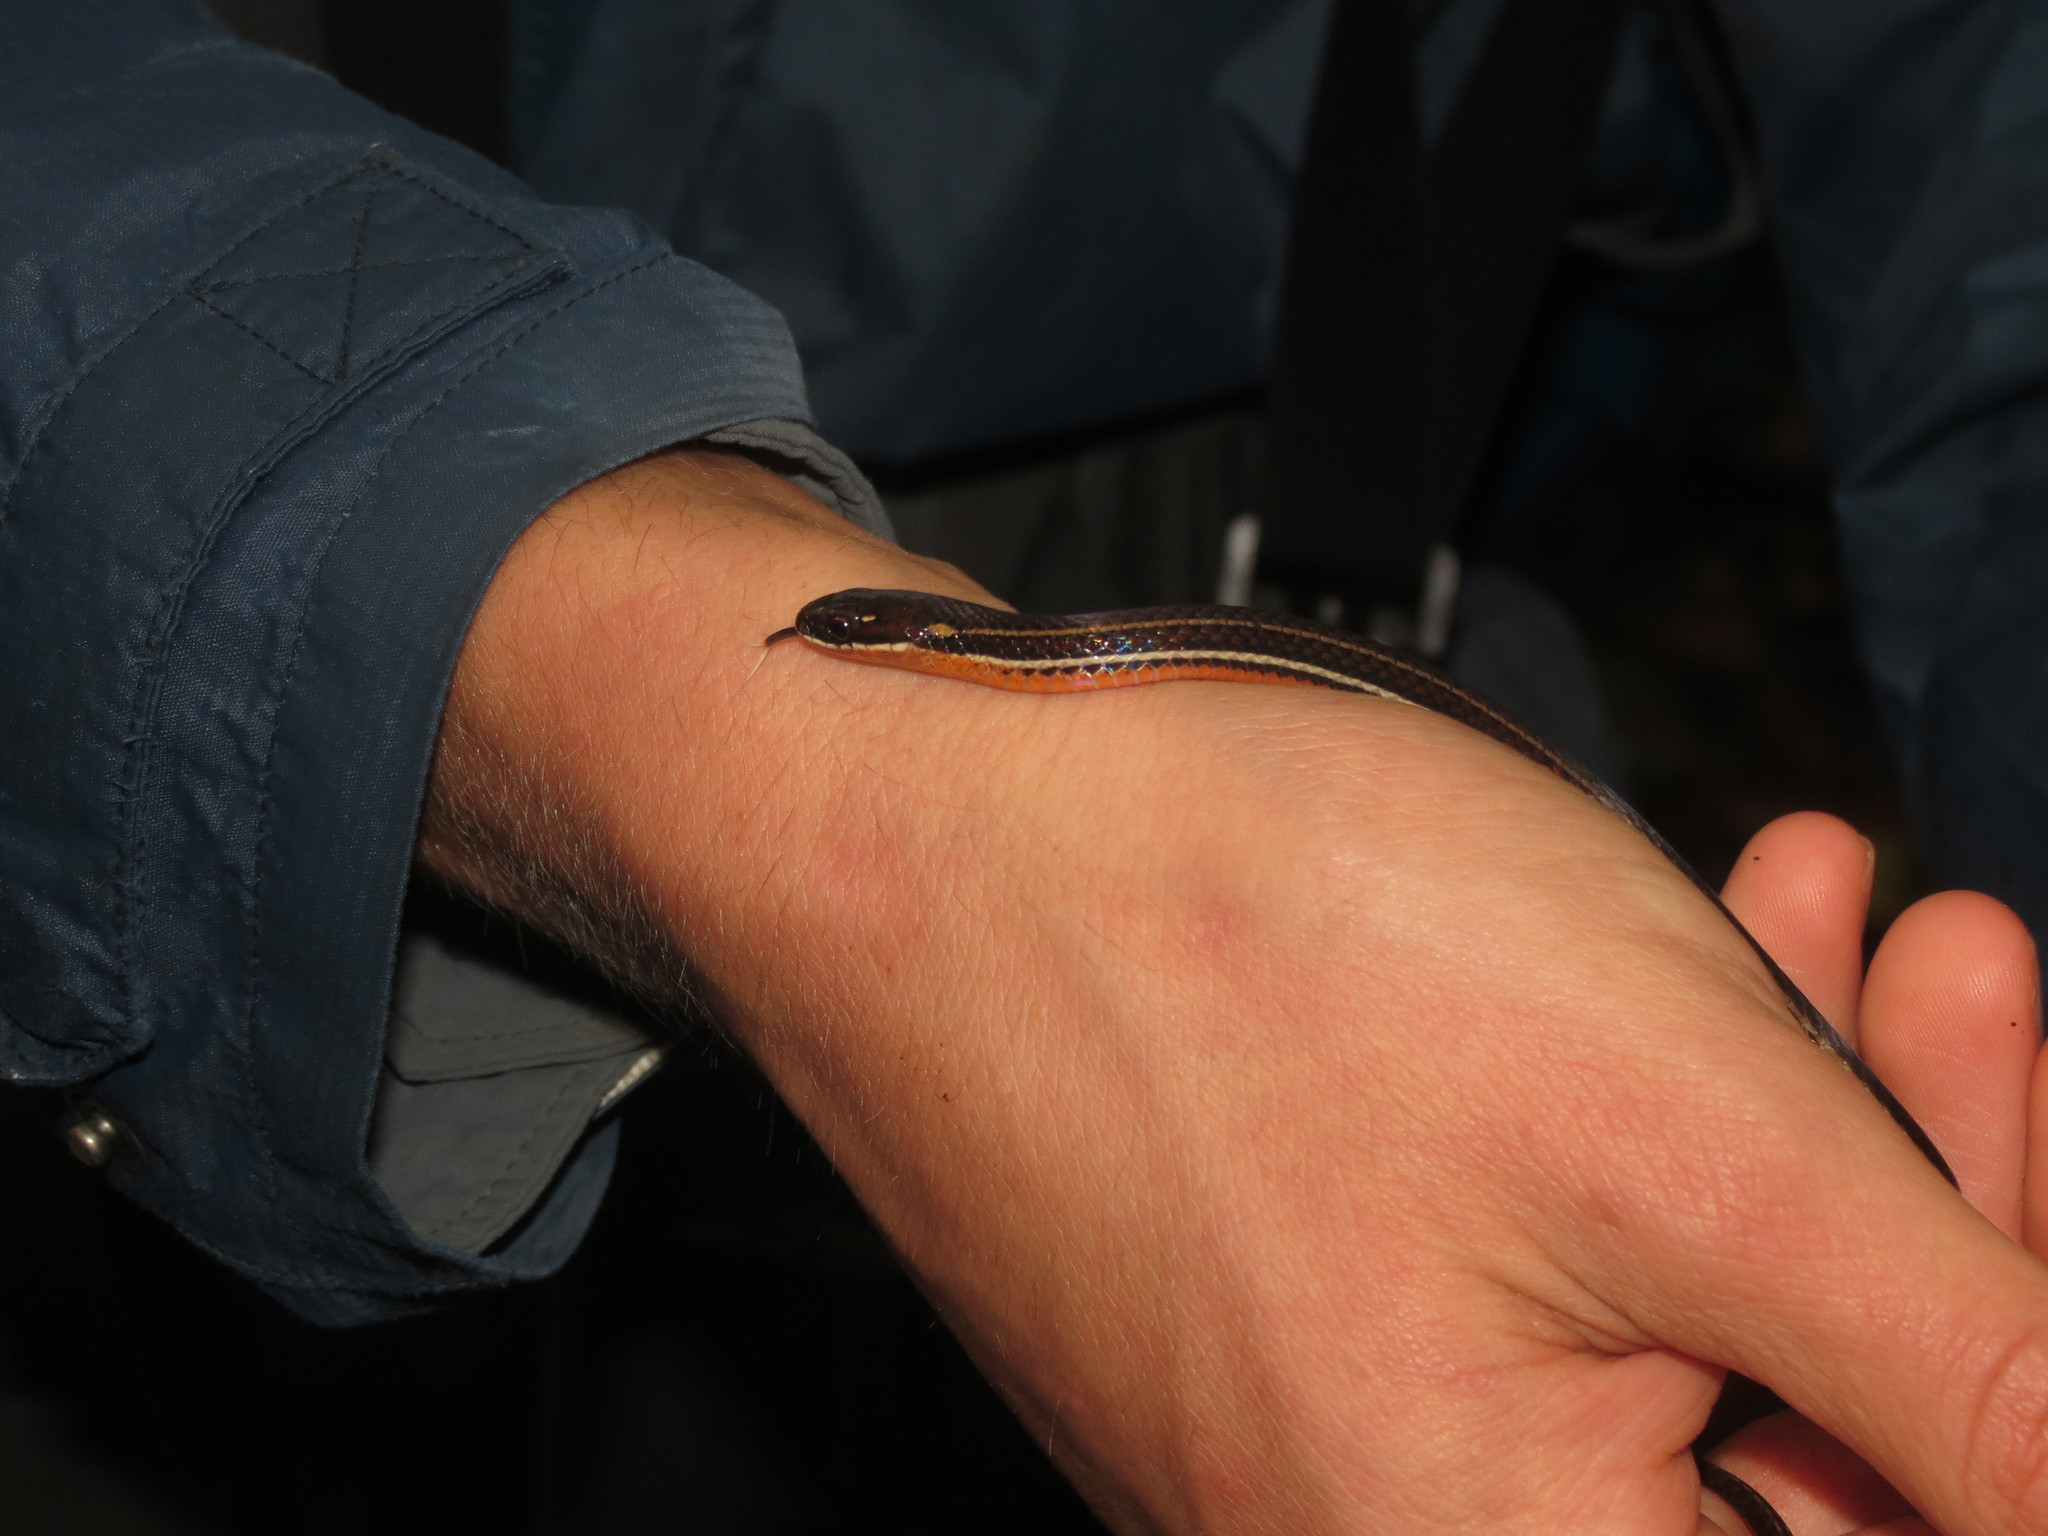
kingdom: Animalia
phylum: Chordata
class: Squamata
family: Colubridae
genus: Urotheca
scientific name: Urotheca guentheri
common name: Striped glasstail
